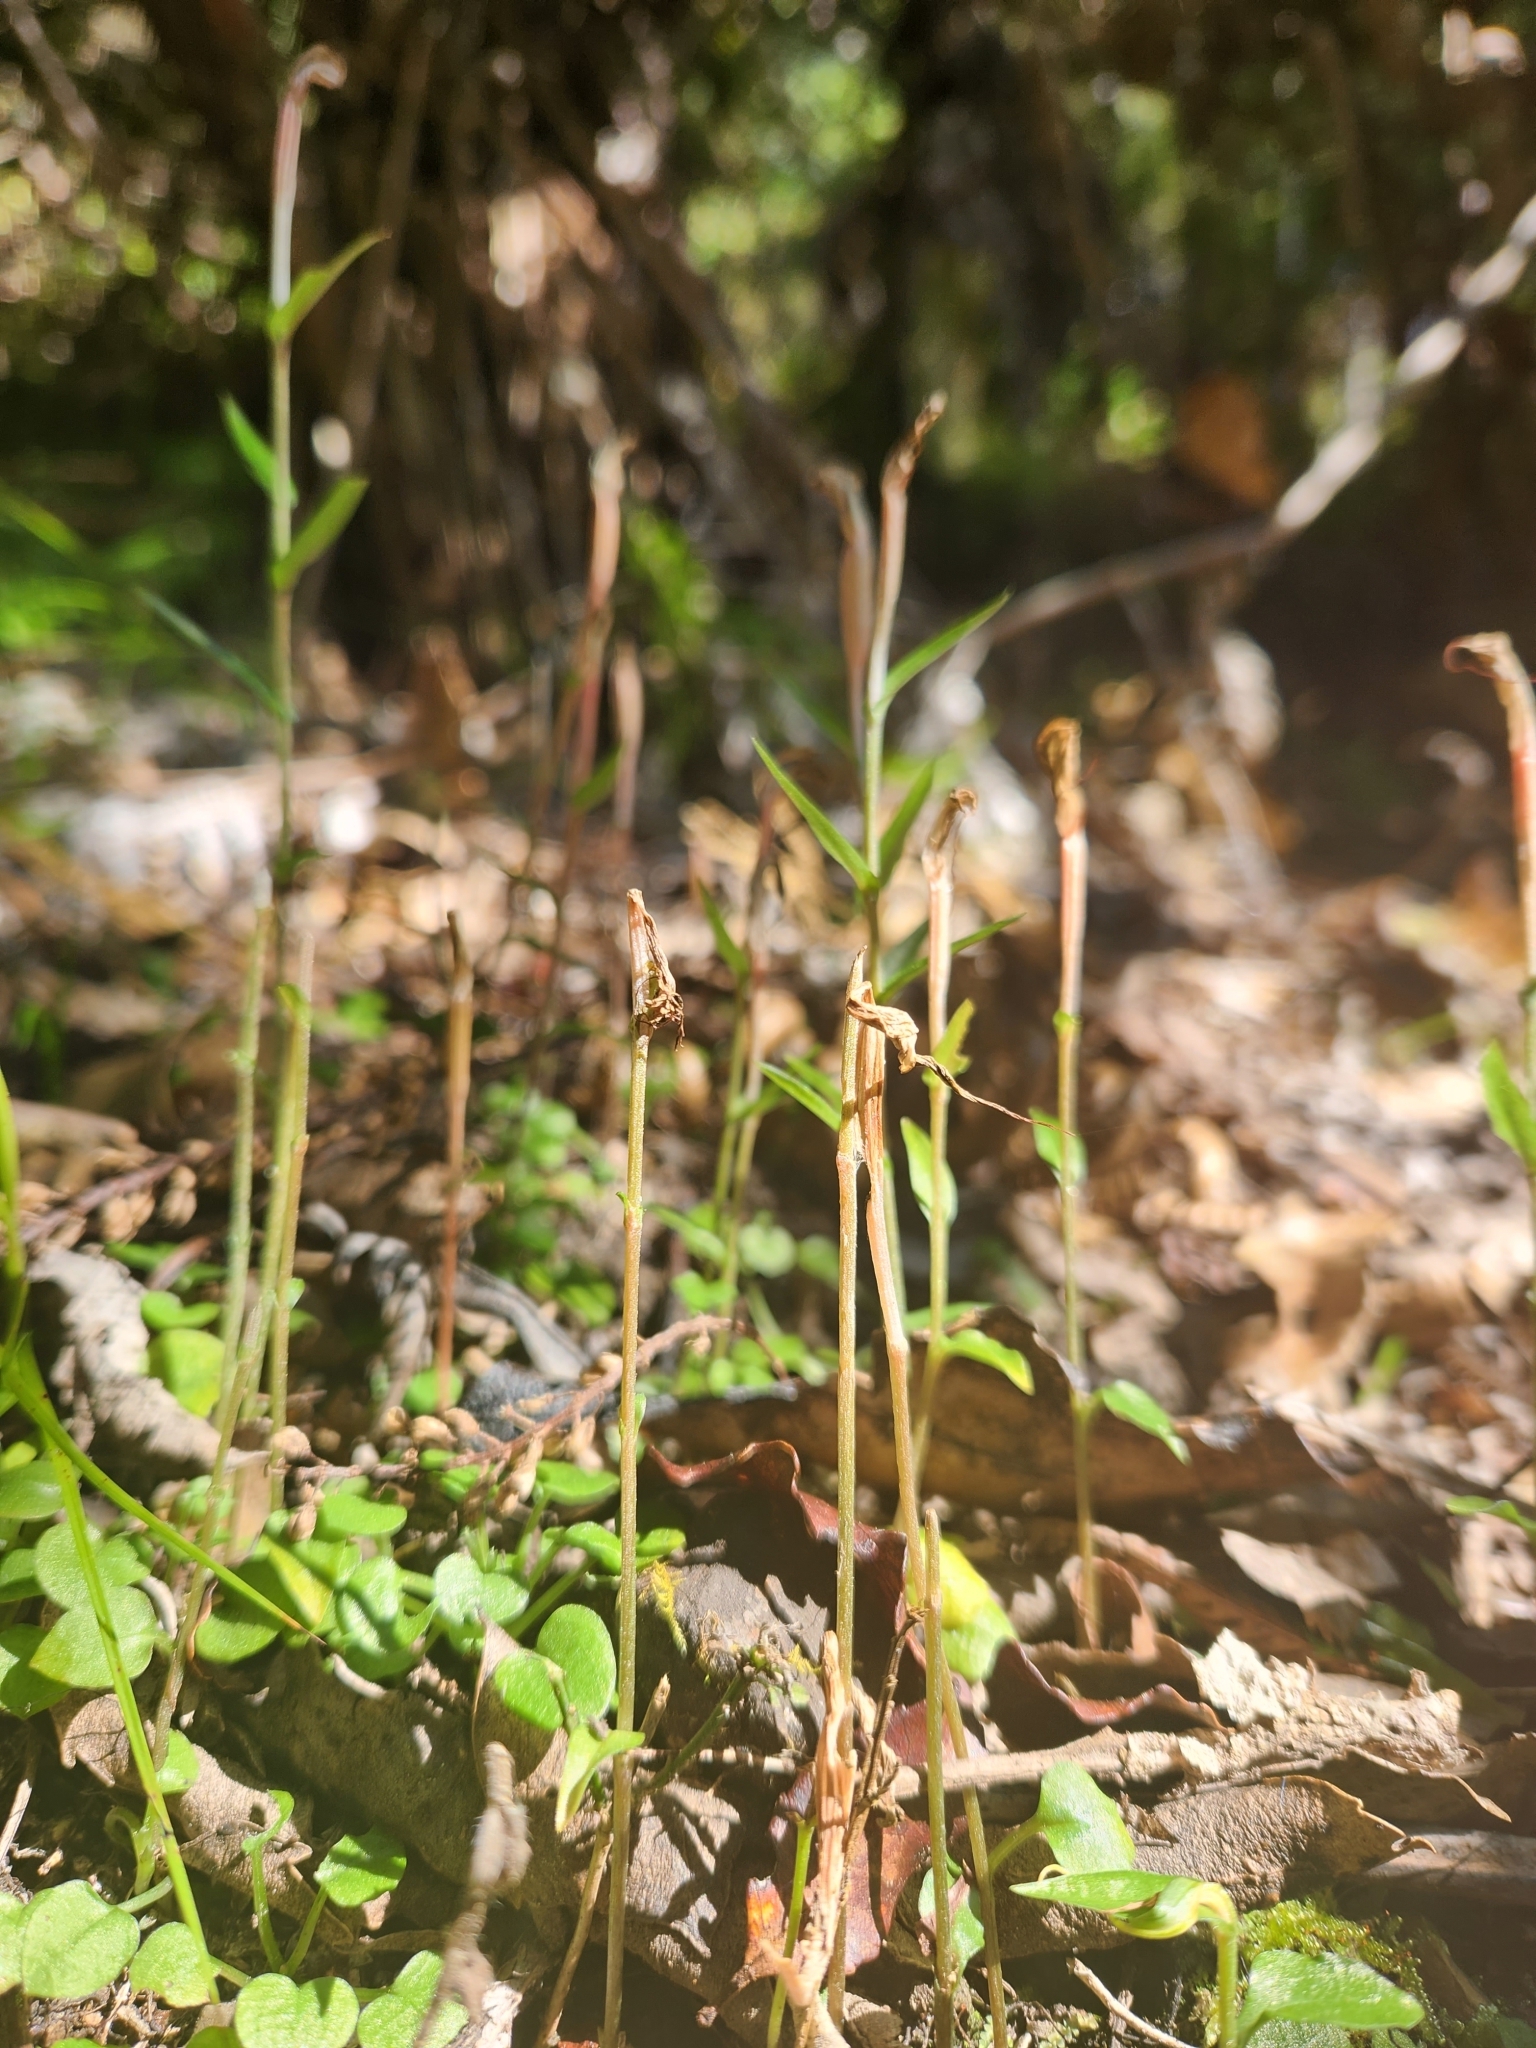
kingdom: Plantae
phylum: Tracheophyta
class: Liliopsida
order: Asparagales
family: Orchidaceae
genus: Pterostylis
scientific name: Pterostylis alobula
